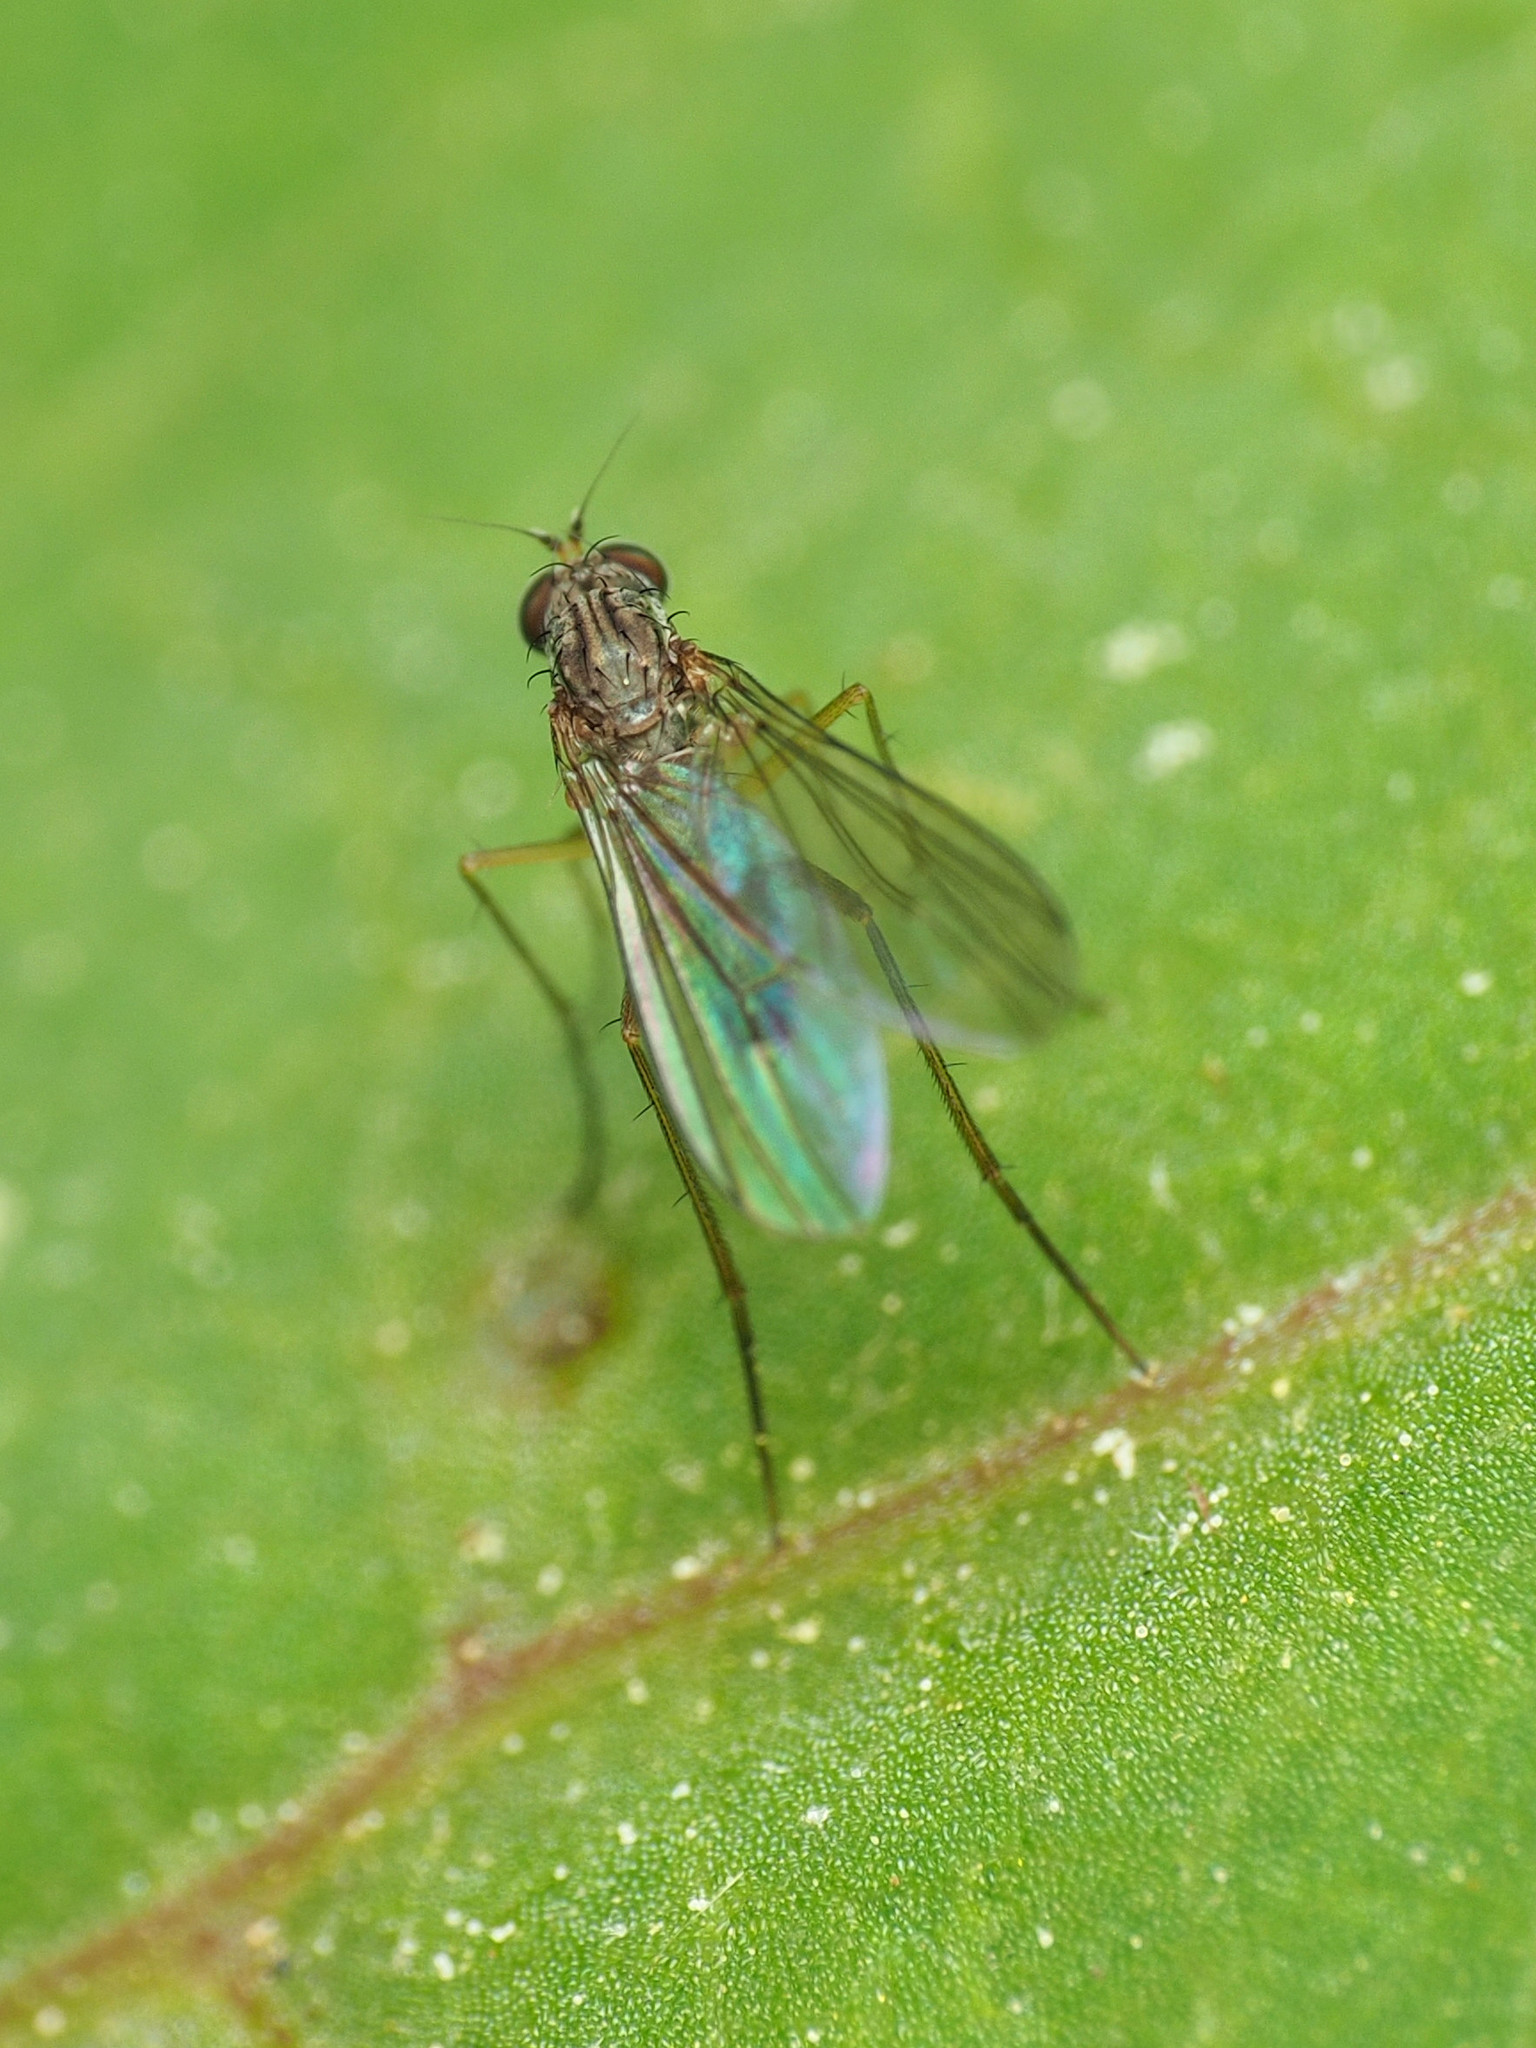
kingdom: Animalia
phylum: Arthropoda
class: Insecta
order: Diptera
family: Dolichopodidae
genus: Sympycnus
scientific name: Sympycnus lineatus
